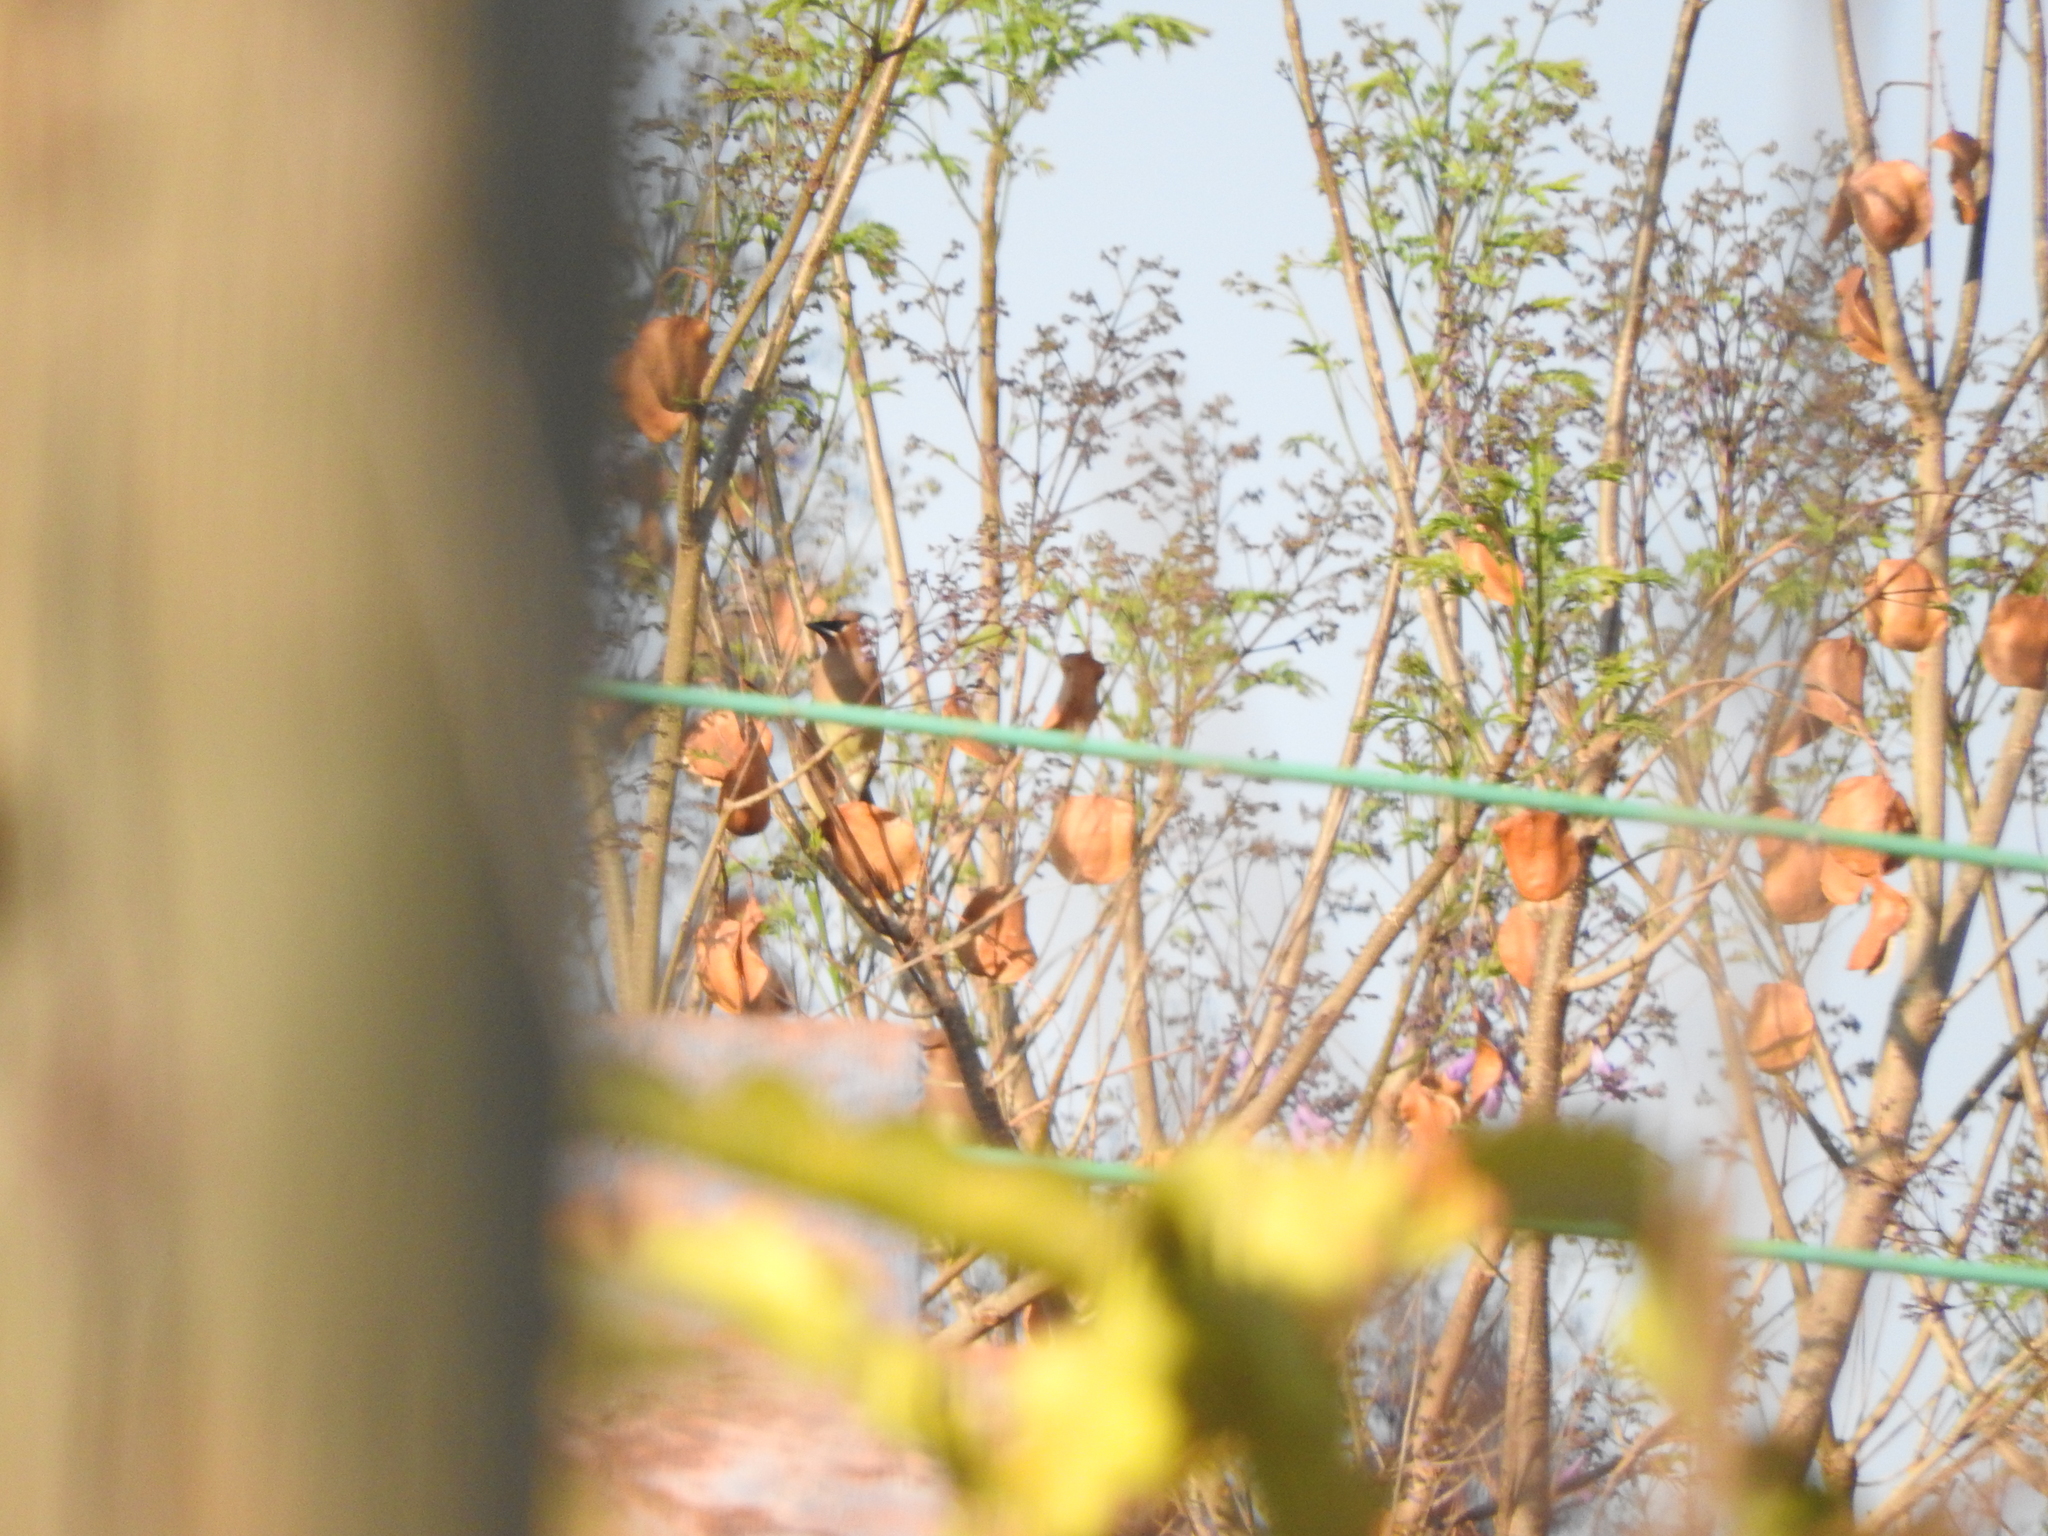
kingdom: Animalia
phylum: Chordata
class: Aves
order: Passeriformes
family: Bombycillidae
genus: Bombycilla
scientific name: Bombycilla cedrorum
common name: Cedar waxwing
